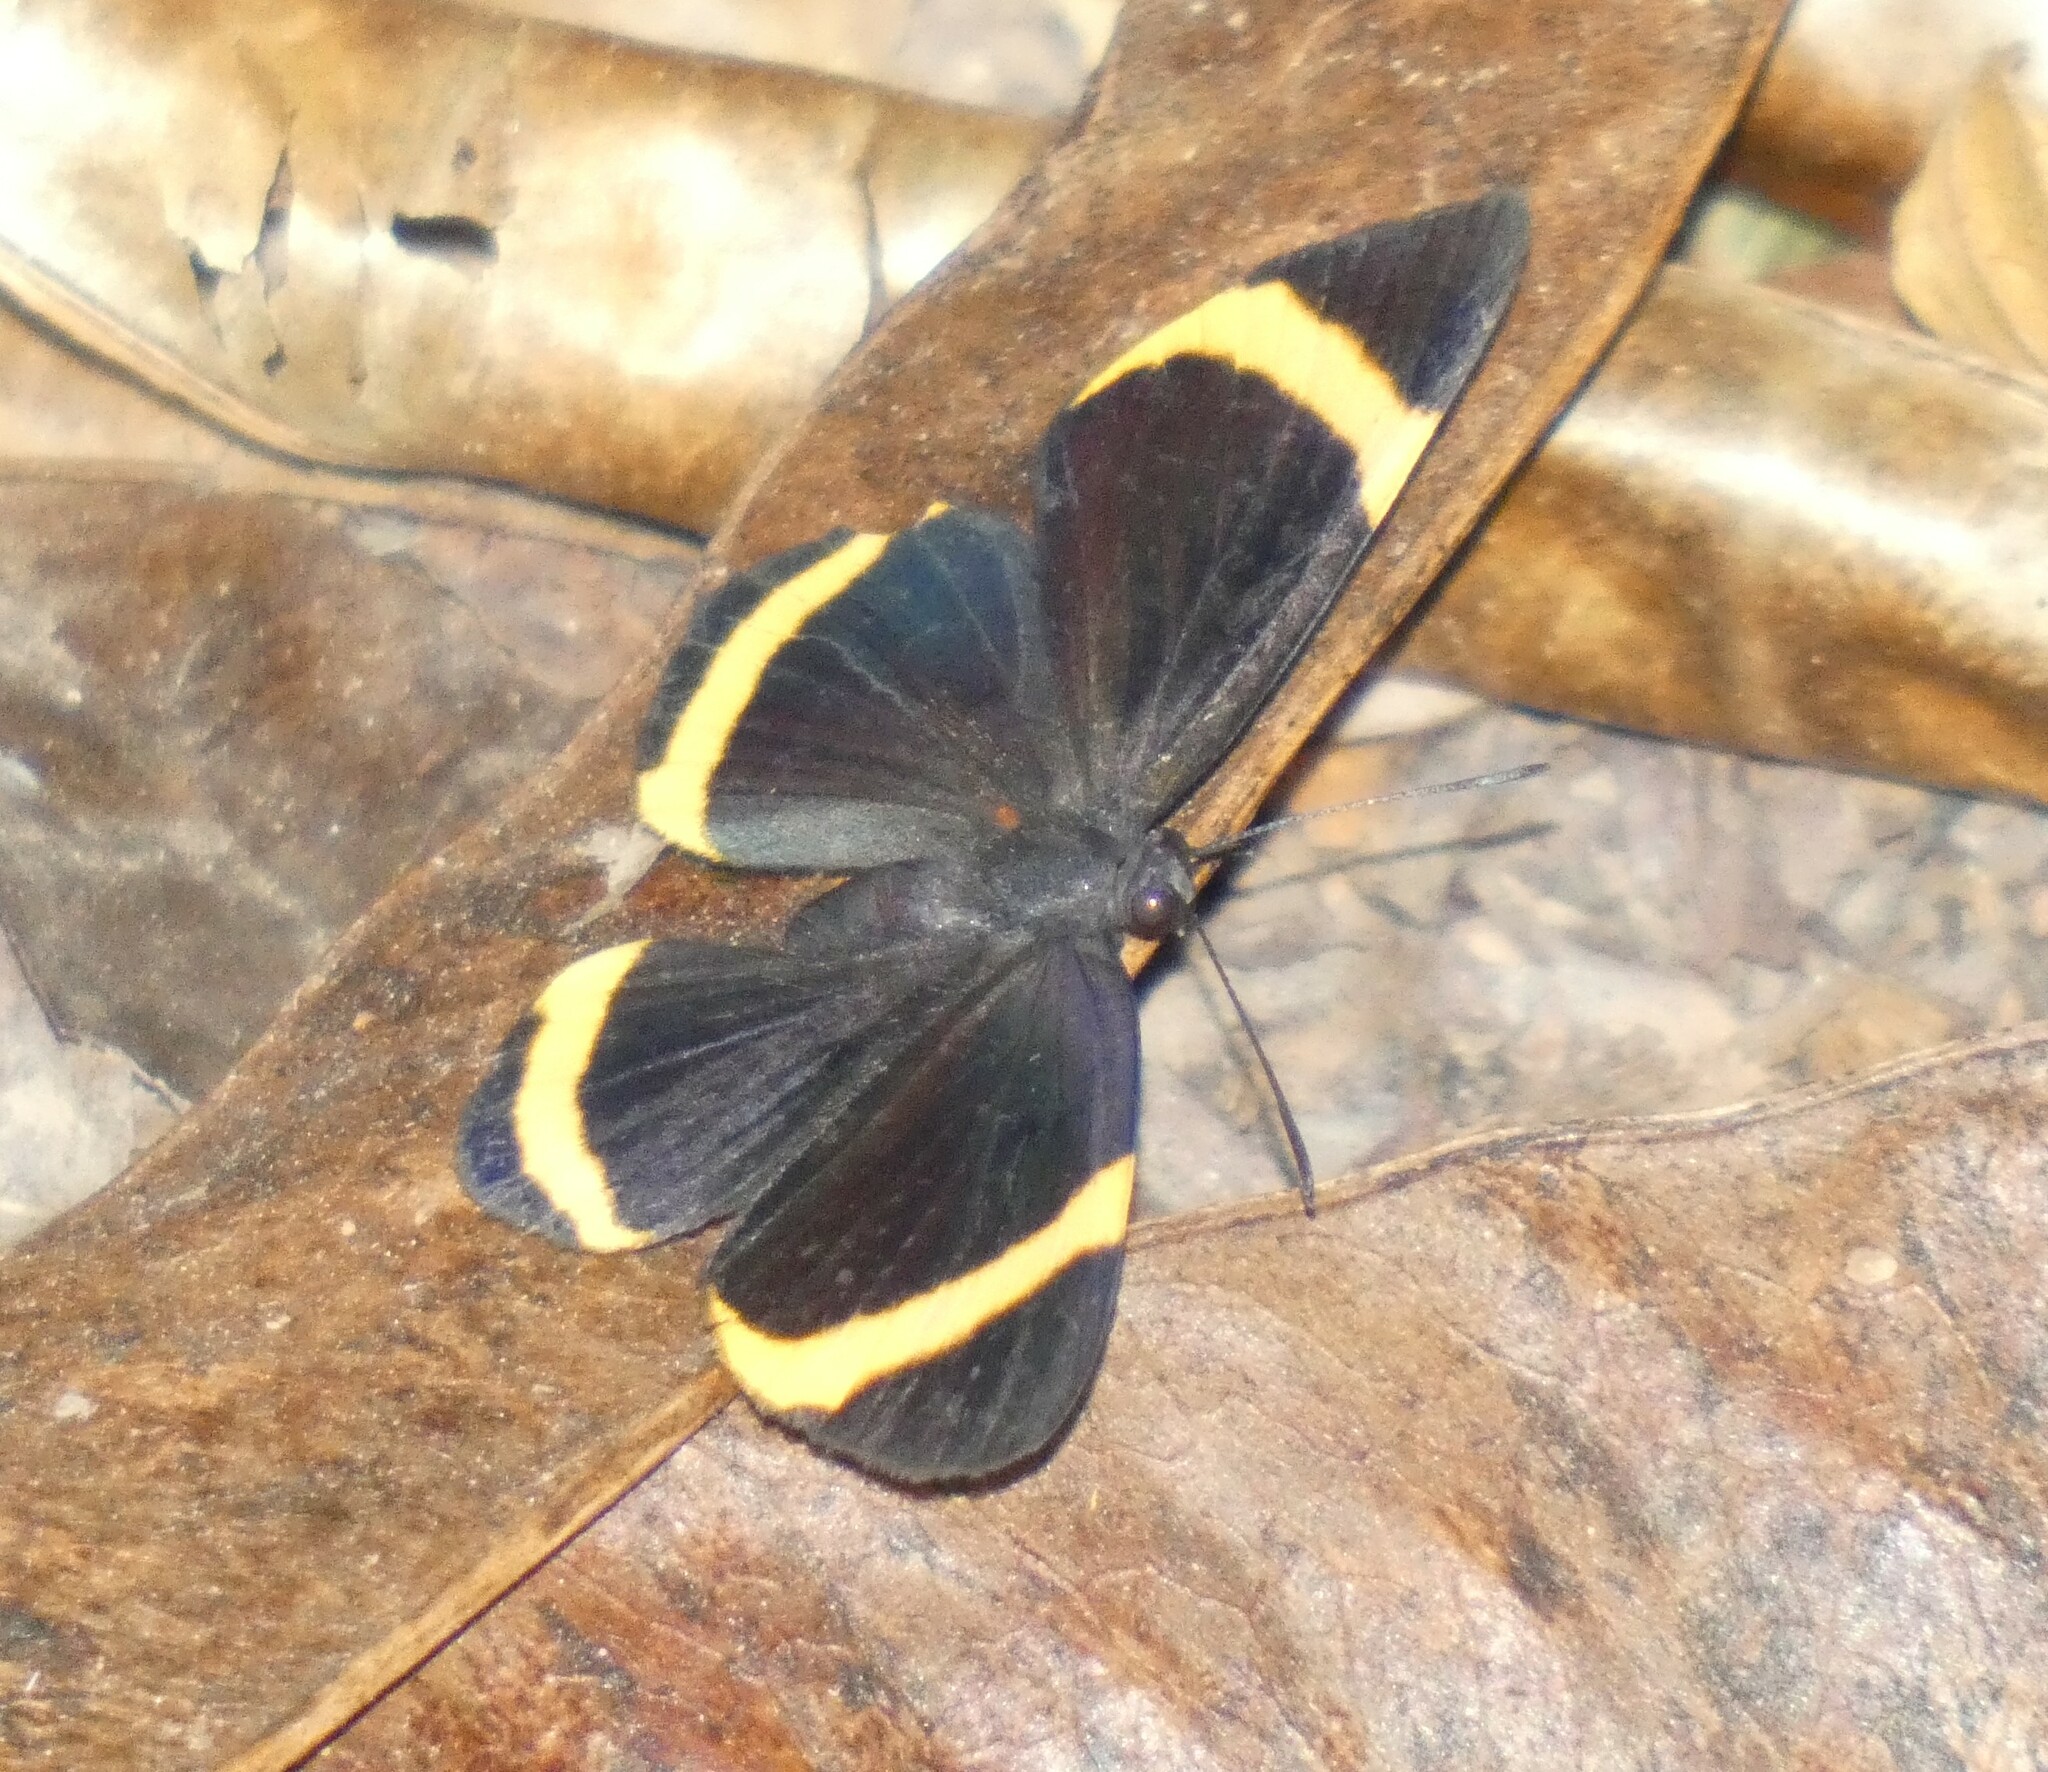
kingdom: Animalia
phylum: Arthropoda
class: Insecta
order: Lepidoptera
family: Riodinidae
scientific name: Riodinidae
